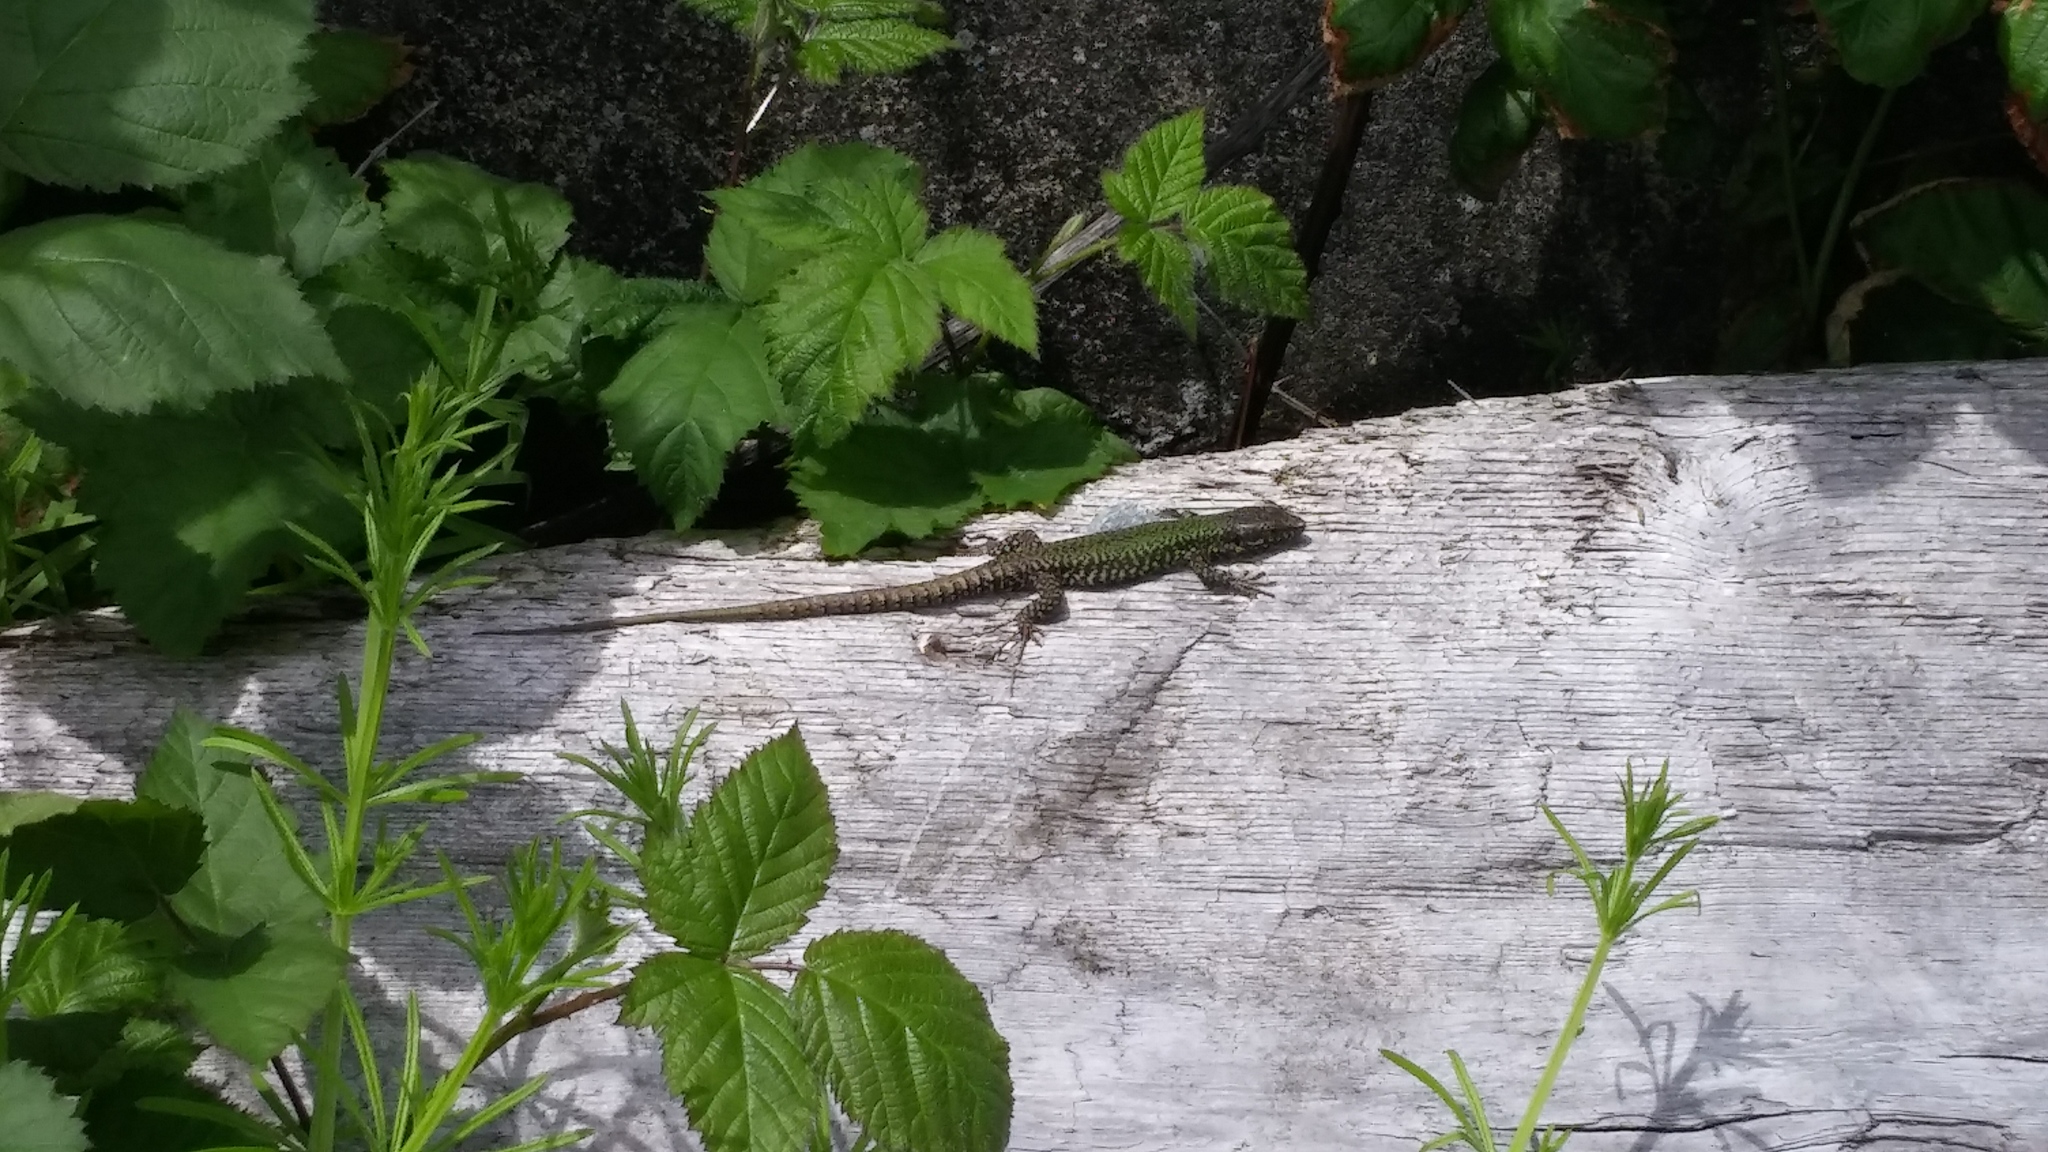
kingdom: Animalia
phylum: Chordata
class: Squamata
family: Lacertidae
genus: Podarcis
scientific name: Podarcis muralis
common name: Common wall lizard
